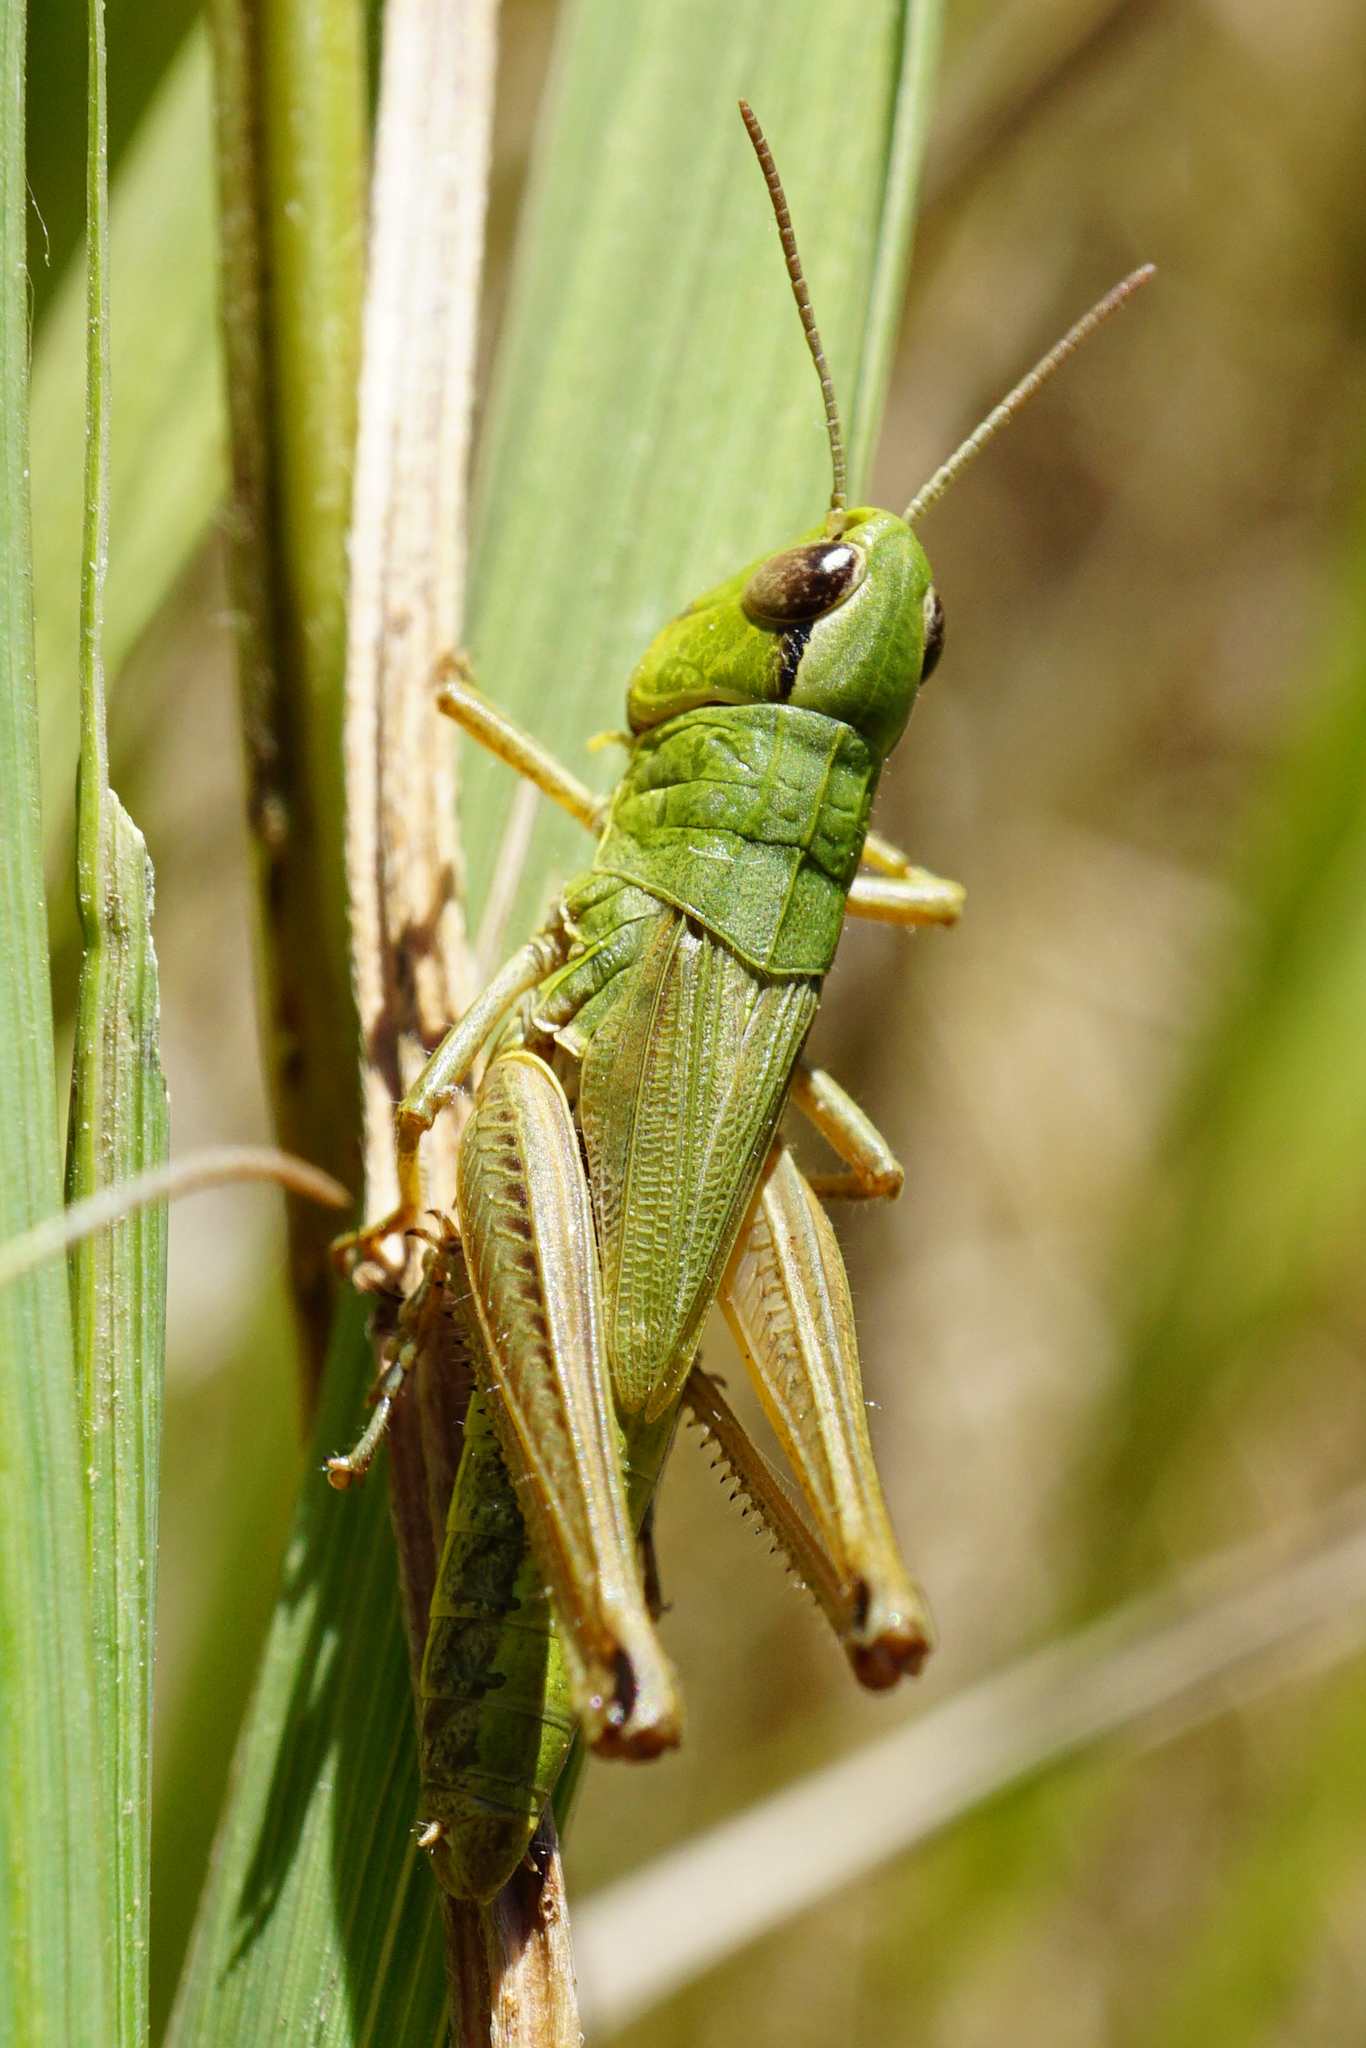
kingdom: Animalia
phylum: Arthropoda
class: Insecta
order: Orthoptera
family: Acrididae
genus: Pseudochorthippus
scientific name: Pseudochorthippus parallelus
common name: Meadow grasshopper
